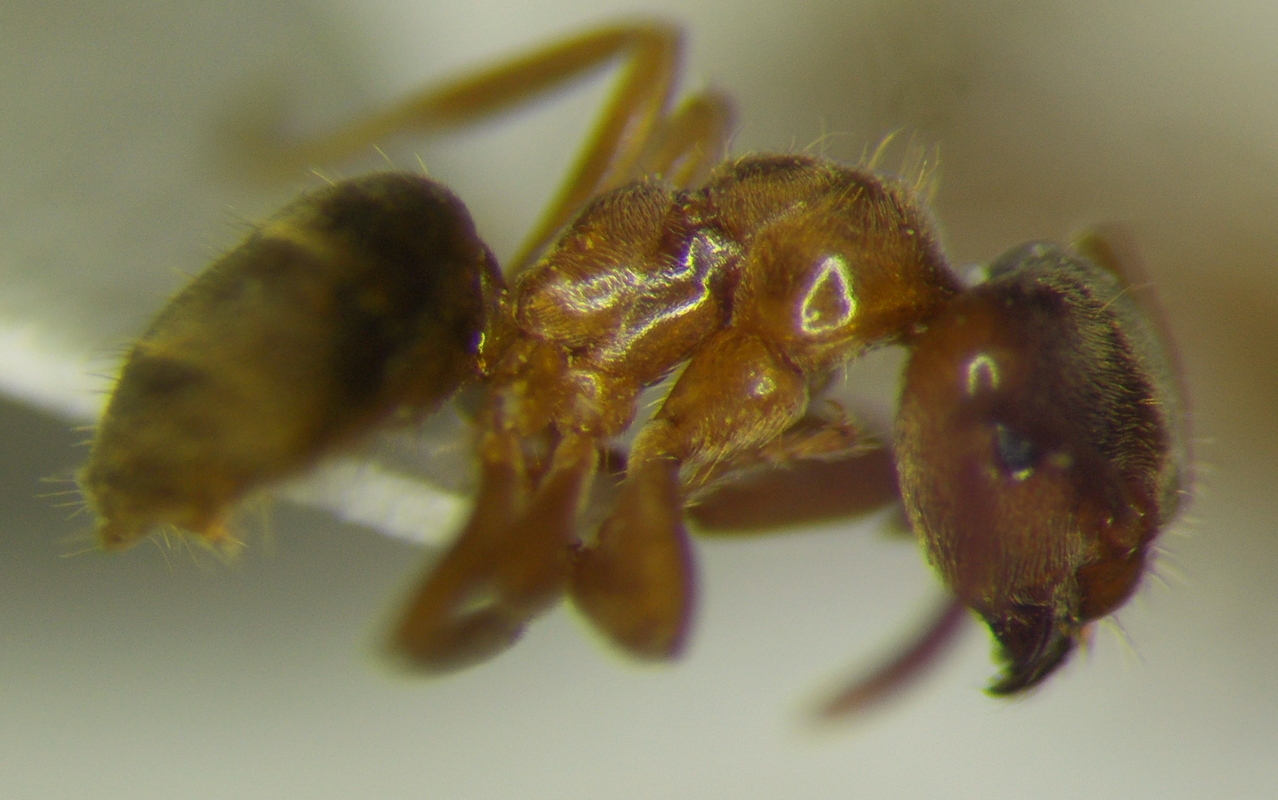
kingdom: Animalia
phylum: Arthropoda
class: Insecta
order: Hymenoptera
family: Formicidae
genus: Lasius
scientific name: Lasius brunneus
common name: Brown ant
